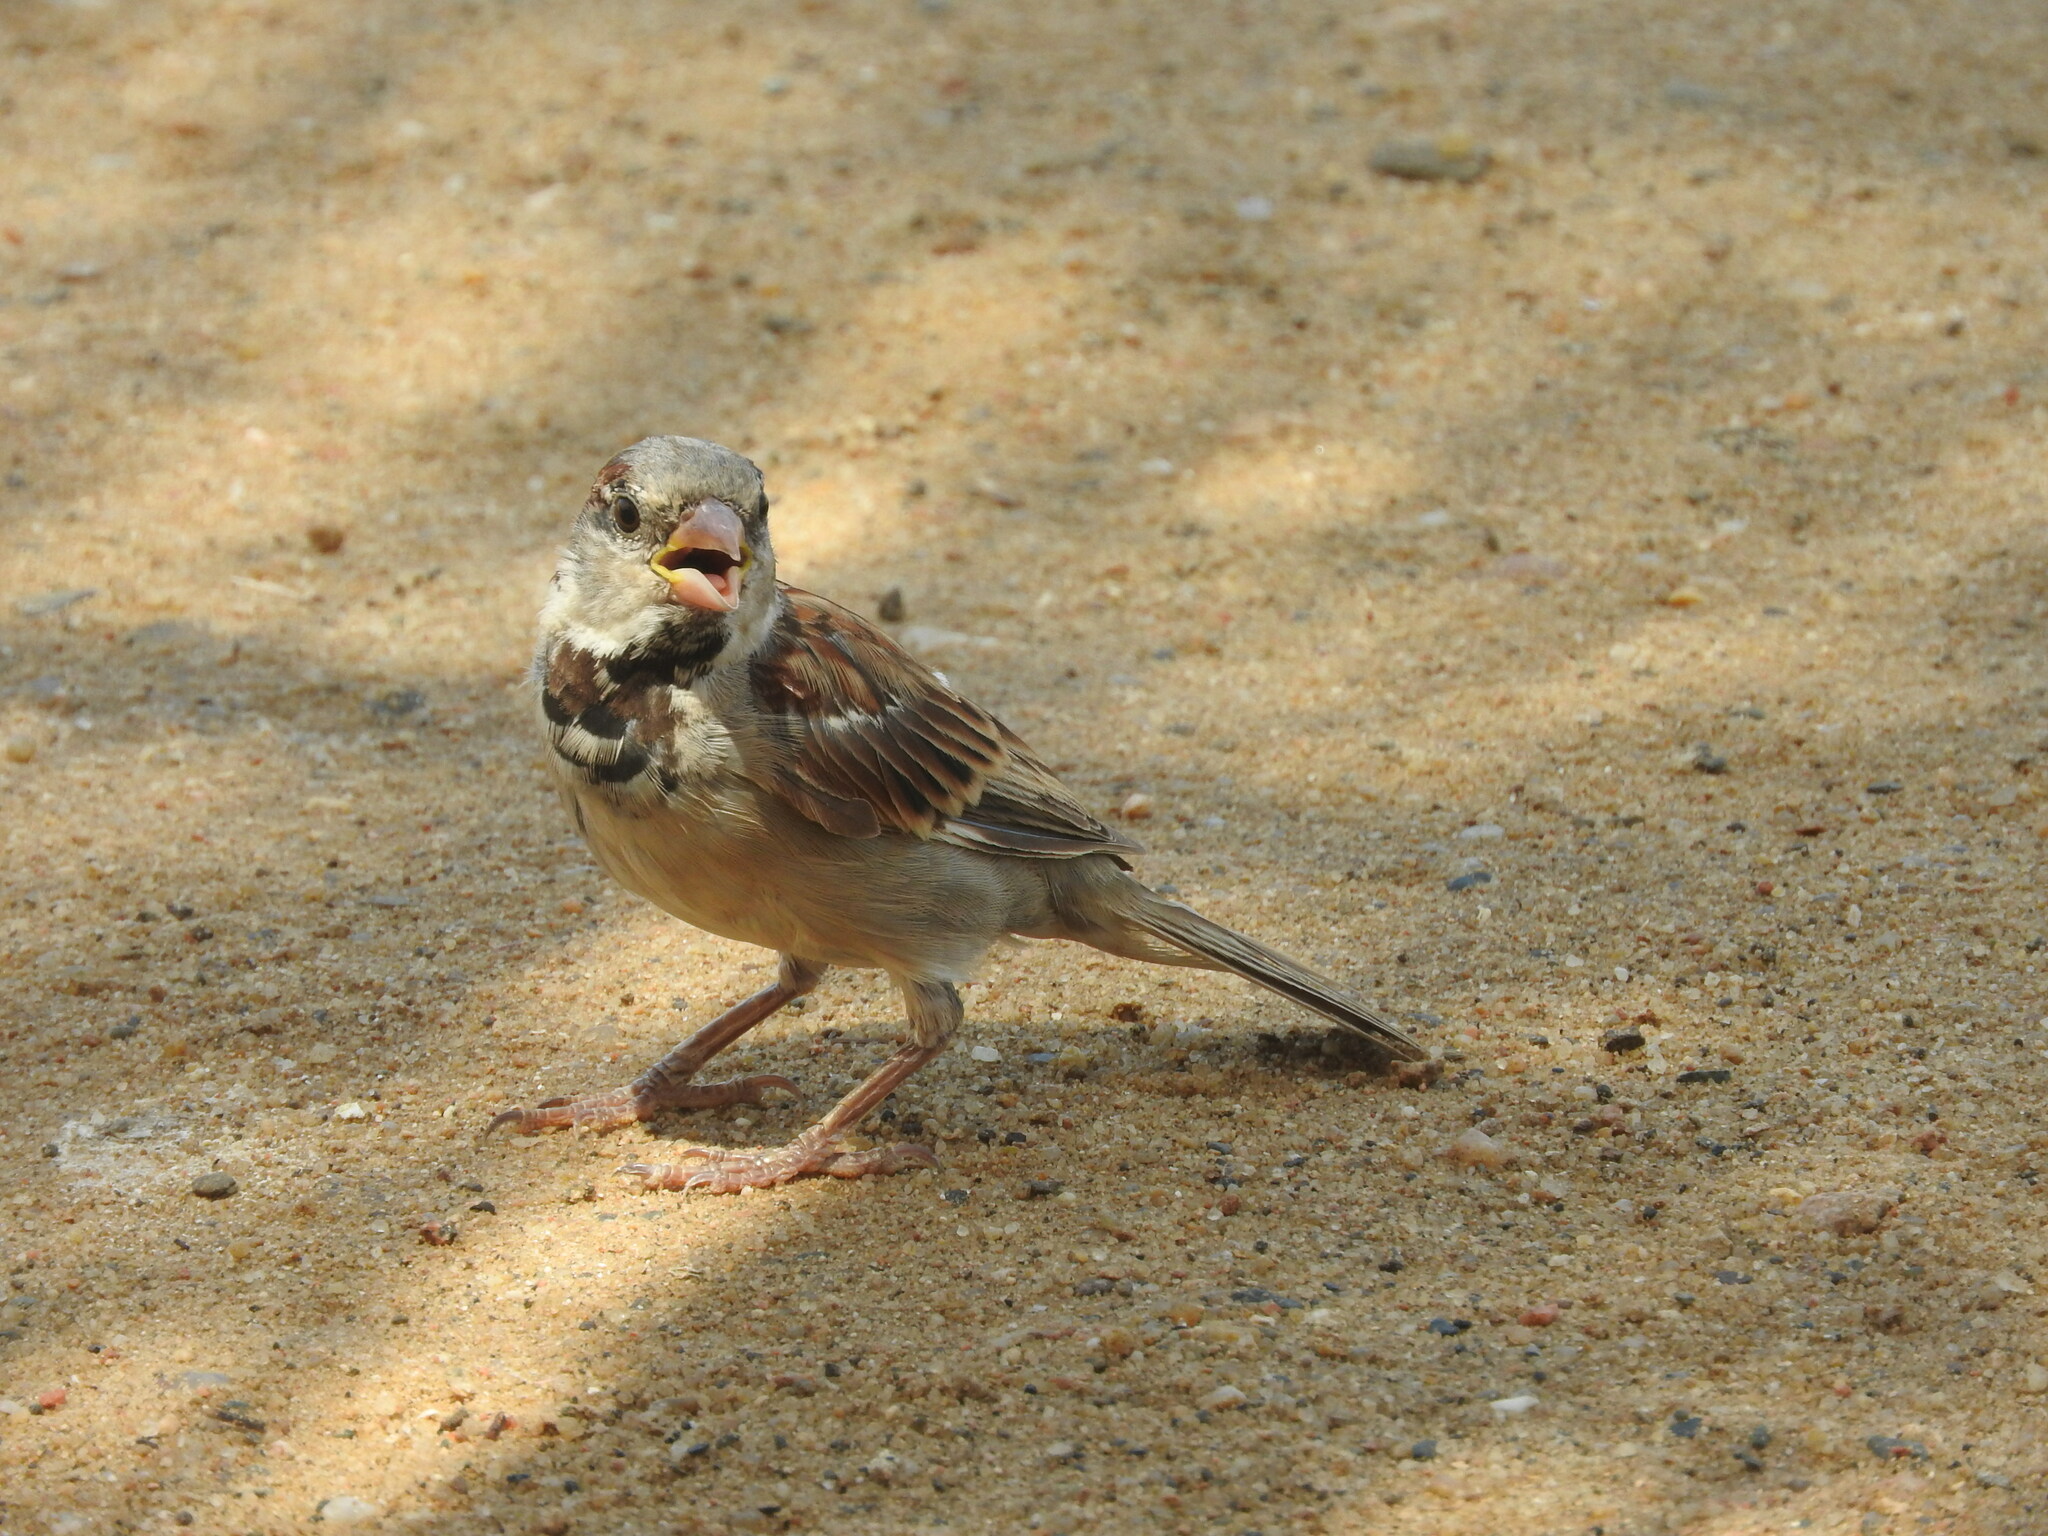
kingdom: Animalia
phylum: Chordata
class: Aves
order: Passeriformes
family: Passeridae
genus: Passer
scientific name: Passer domesticus
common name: House sparrow
